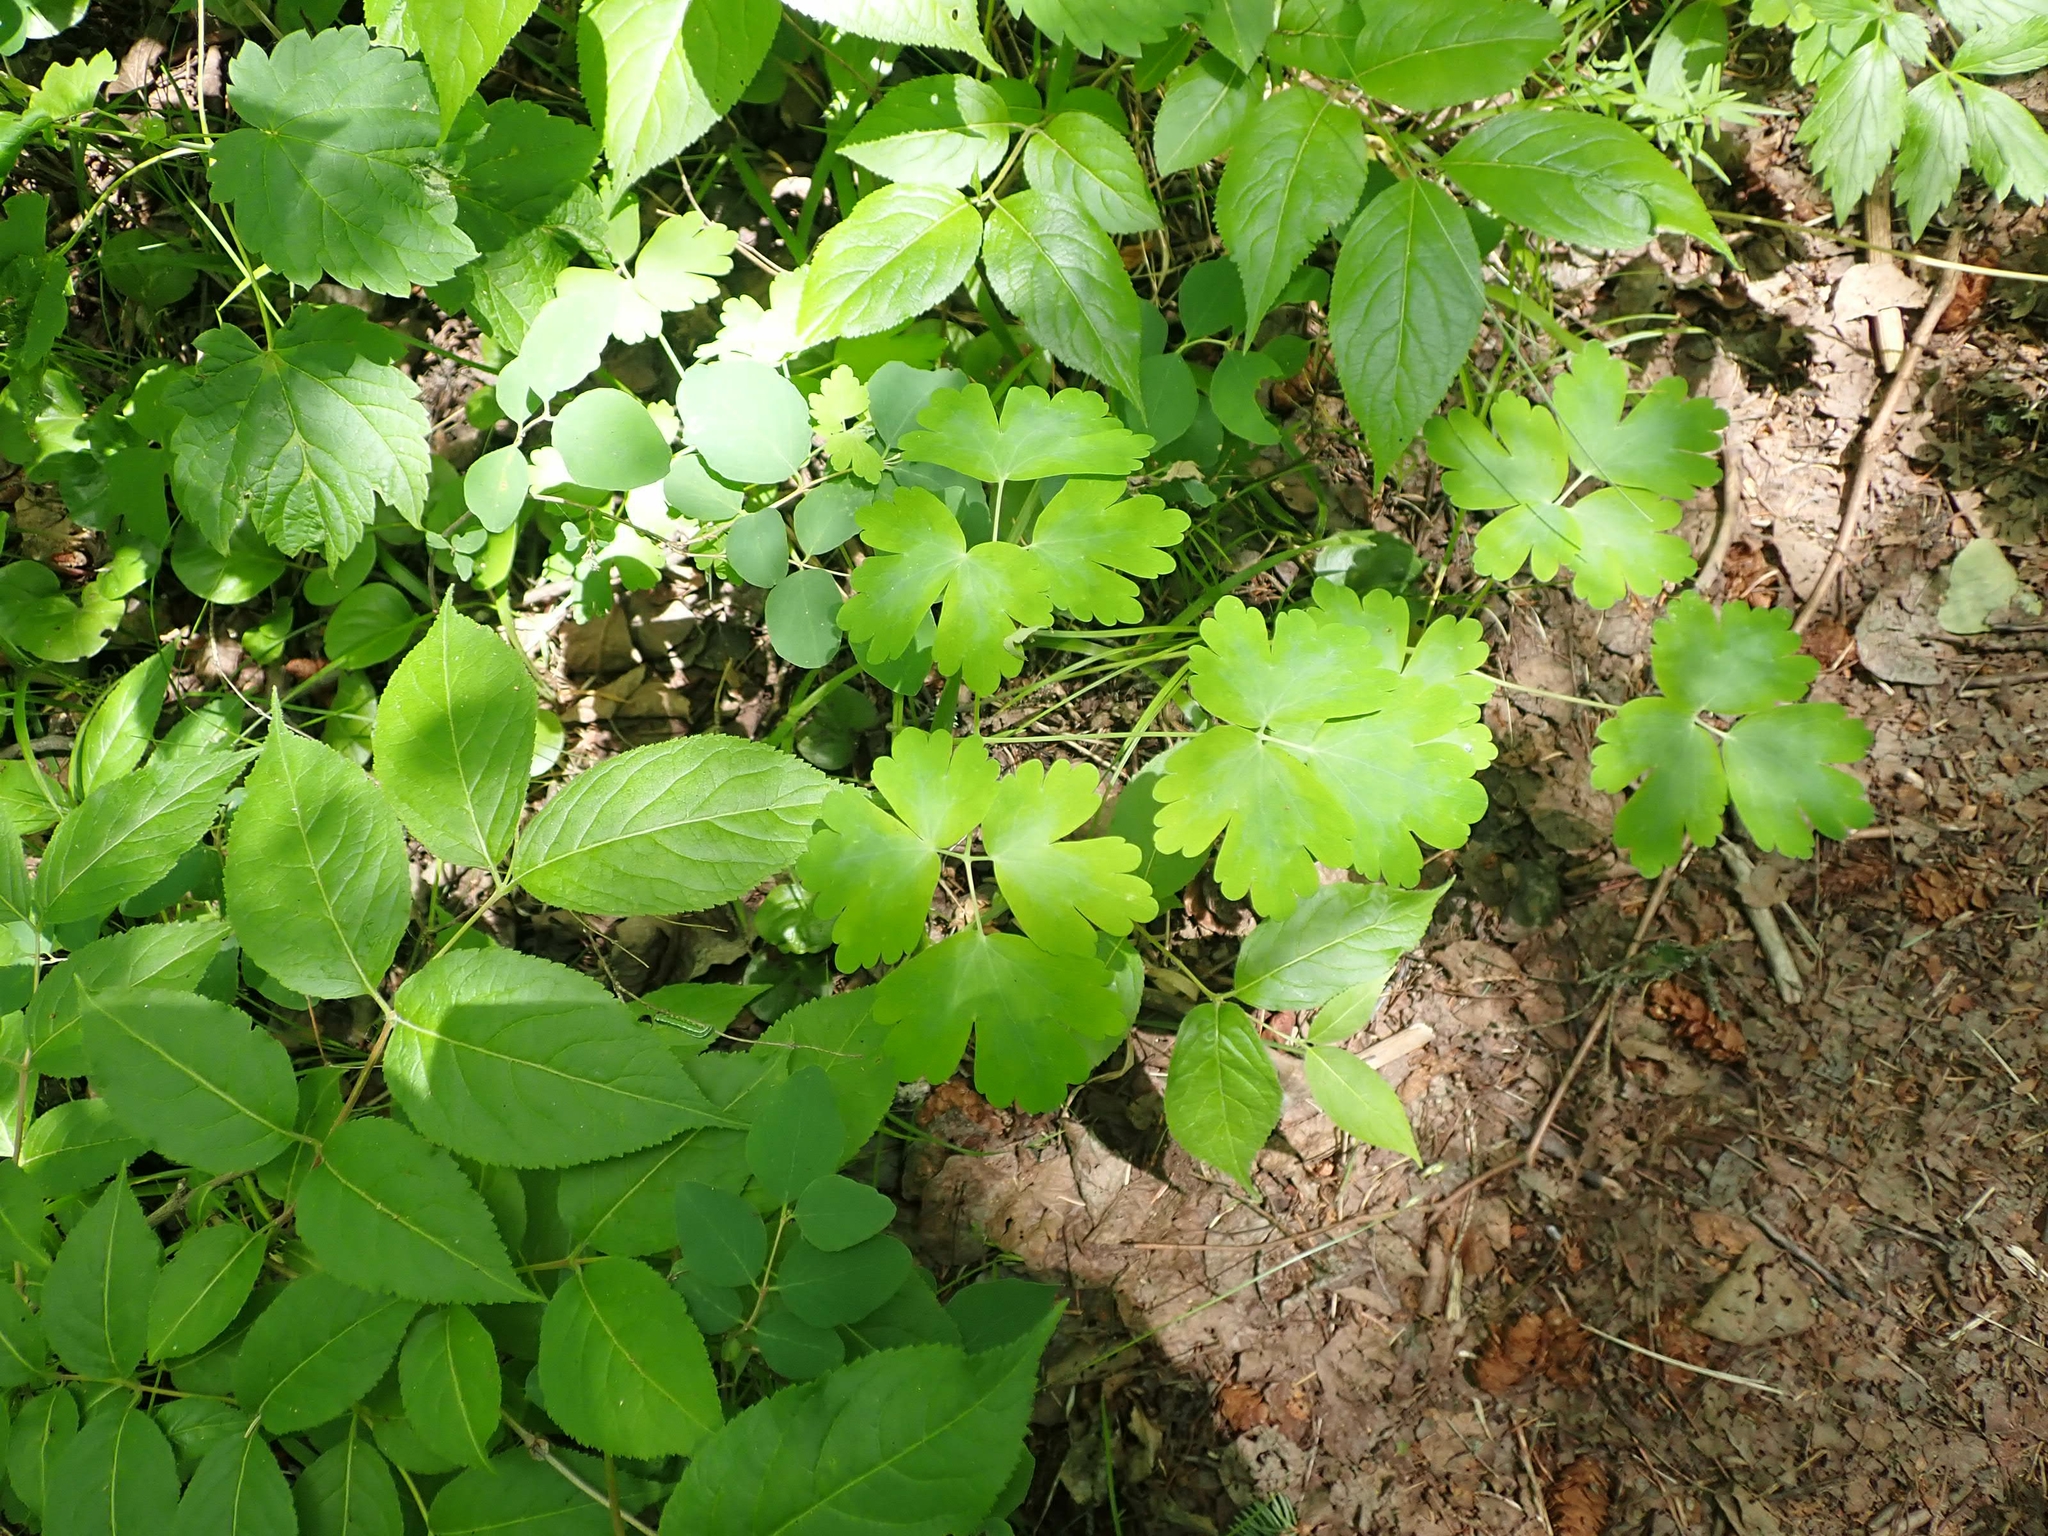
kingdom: Plantae
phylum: Tracheophyta
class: Magnoliopsida
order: Ranunculales
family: Ranunculaceae
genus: Aquilegia
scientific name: Aquilegia canadensis
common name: American columbine
